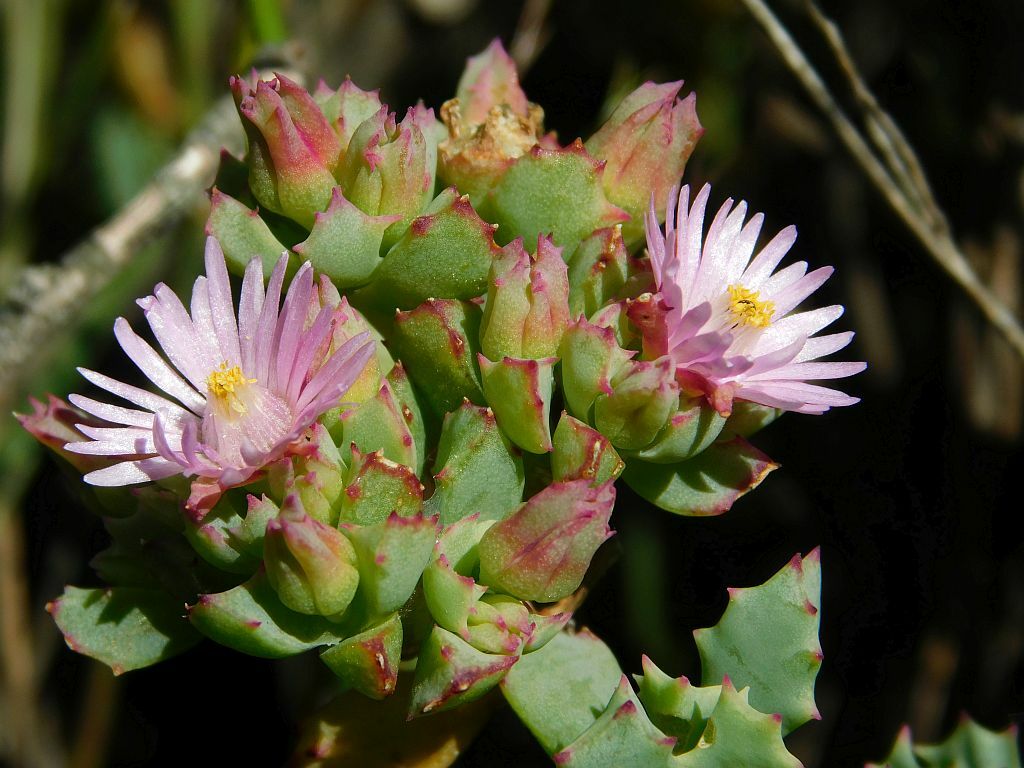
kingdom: Plantae
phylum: Tracheophyta
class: Magnoliopsida
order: Caryophyllales
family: Aizoaceae
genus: Oscularia
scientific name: Oscularia deltoides
